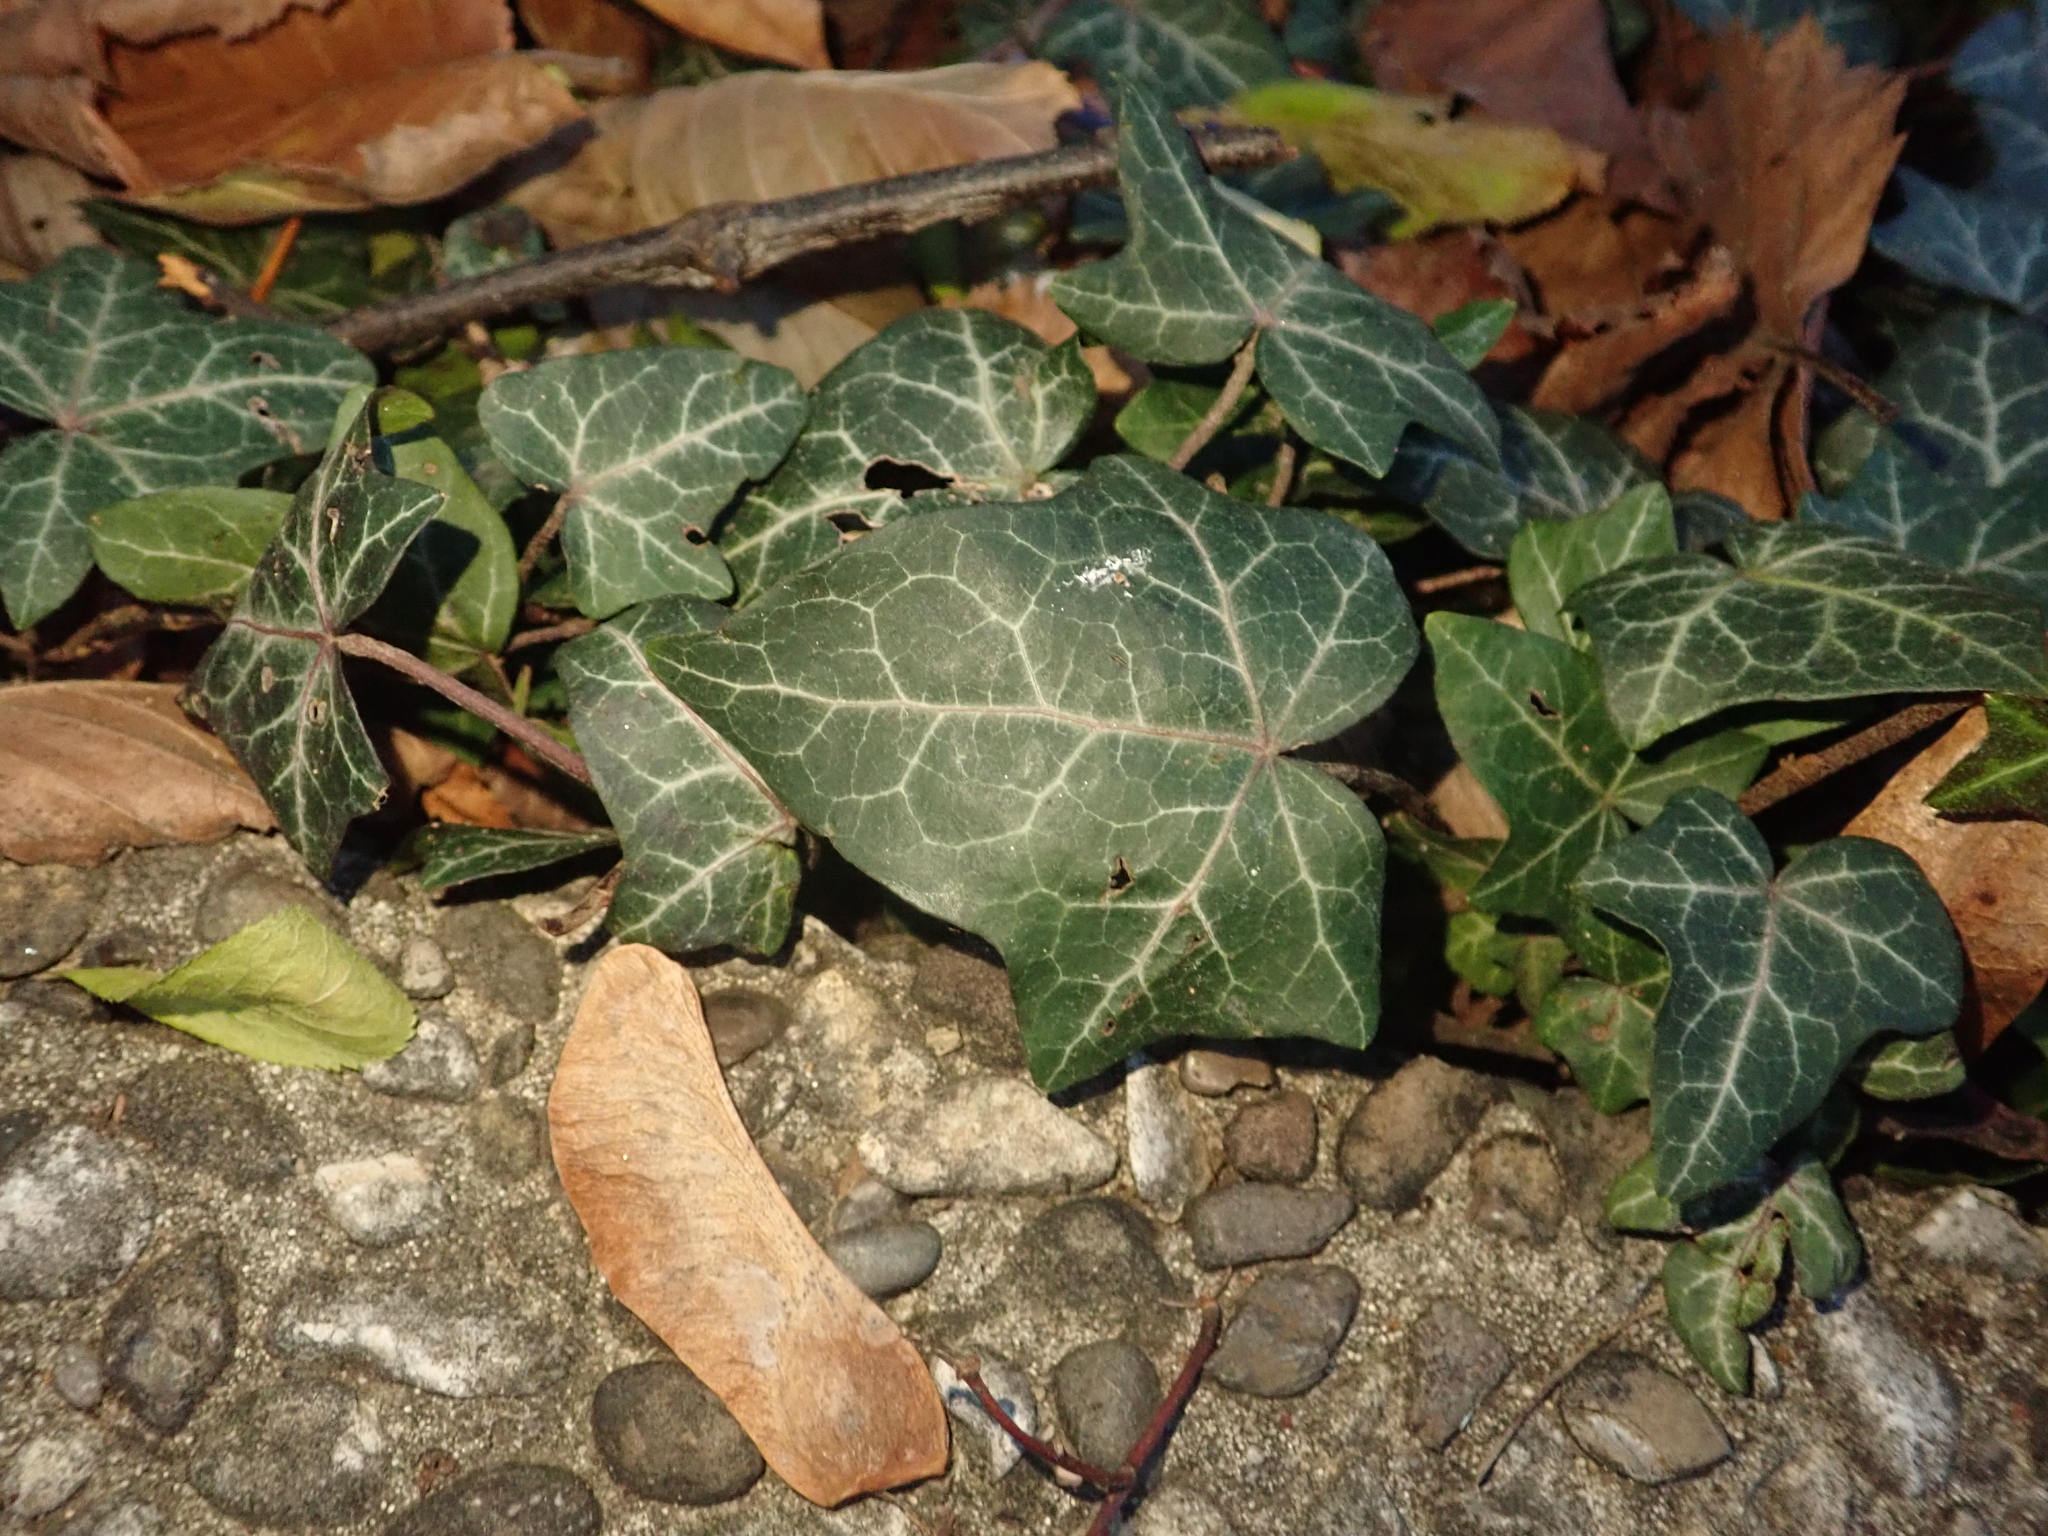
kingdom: Plantae
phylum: Tracheophyta
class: Magnoliopsida
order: Apiales
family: Araliaceae
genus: Hedera
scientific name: Hedera helix
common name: Ivy
